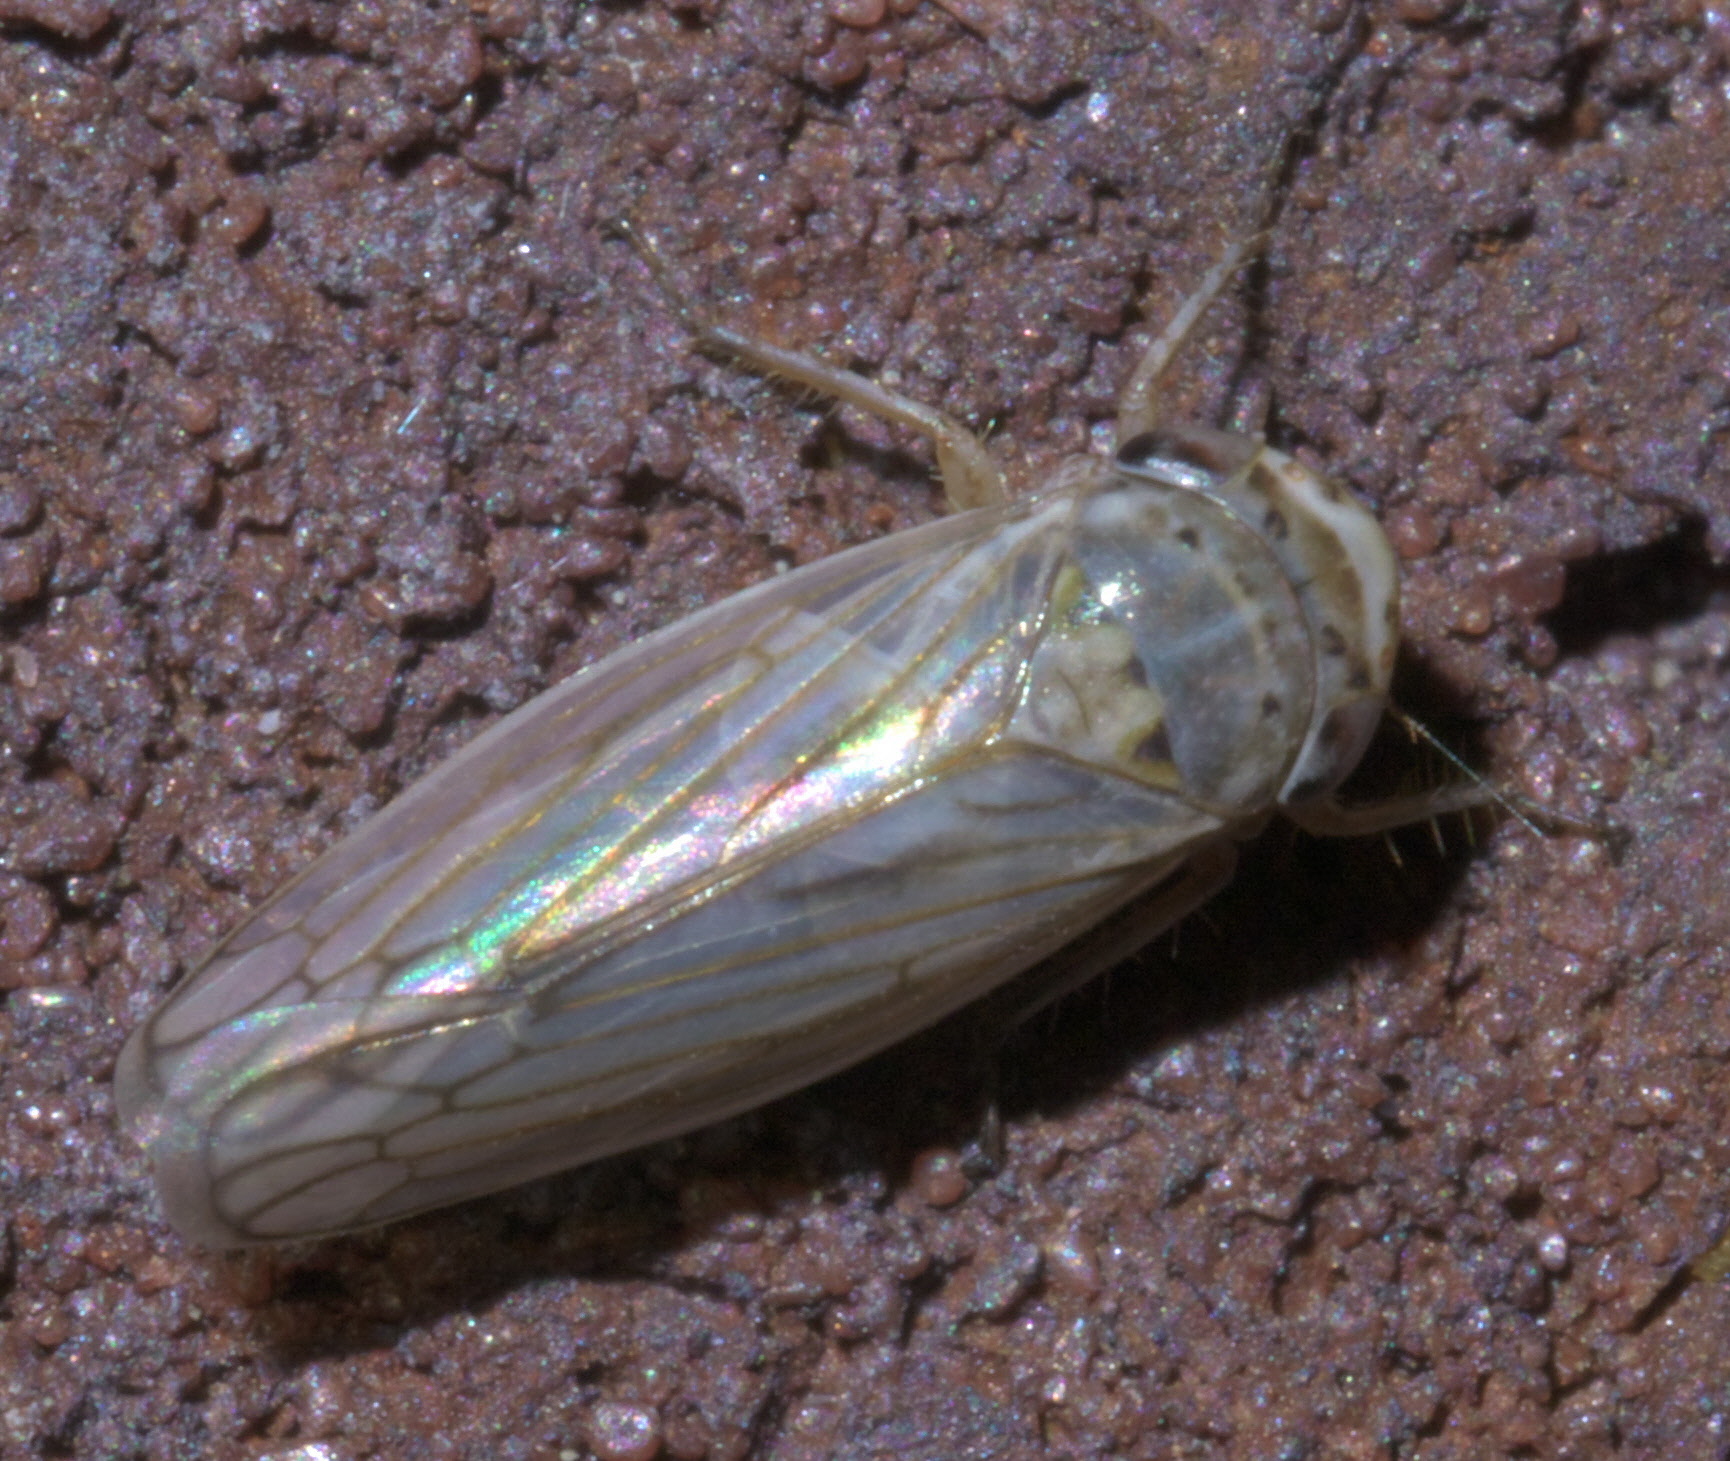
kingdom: Animalia
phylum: Arthropoda
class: Insecta
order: Hemiptera
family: Cicadellidae
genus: Exitianus
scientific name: Exitianus exitiosus
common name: Gray lawn leafhopper
